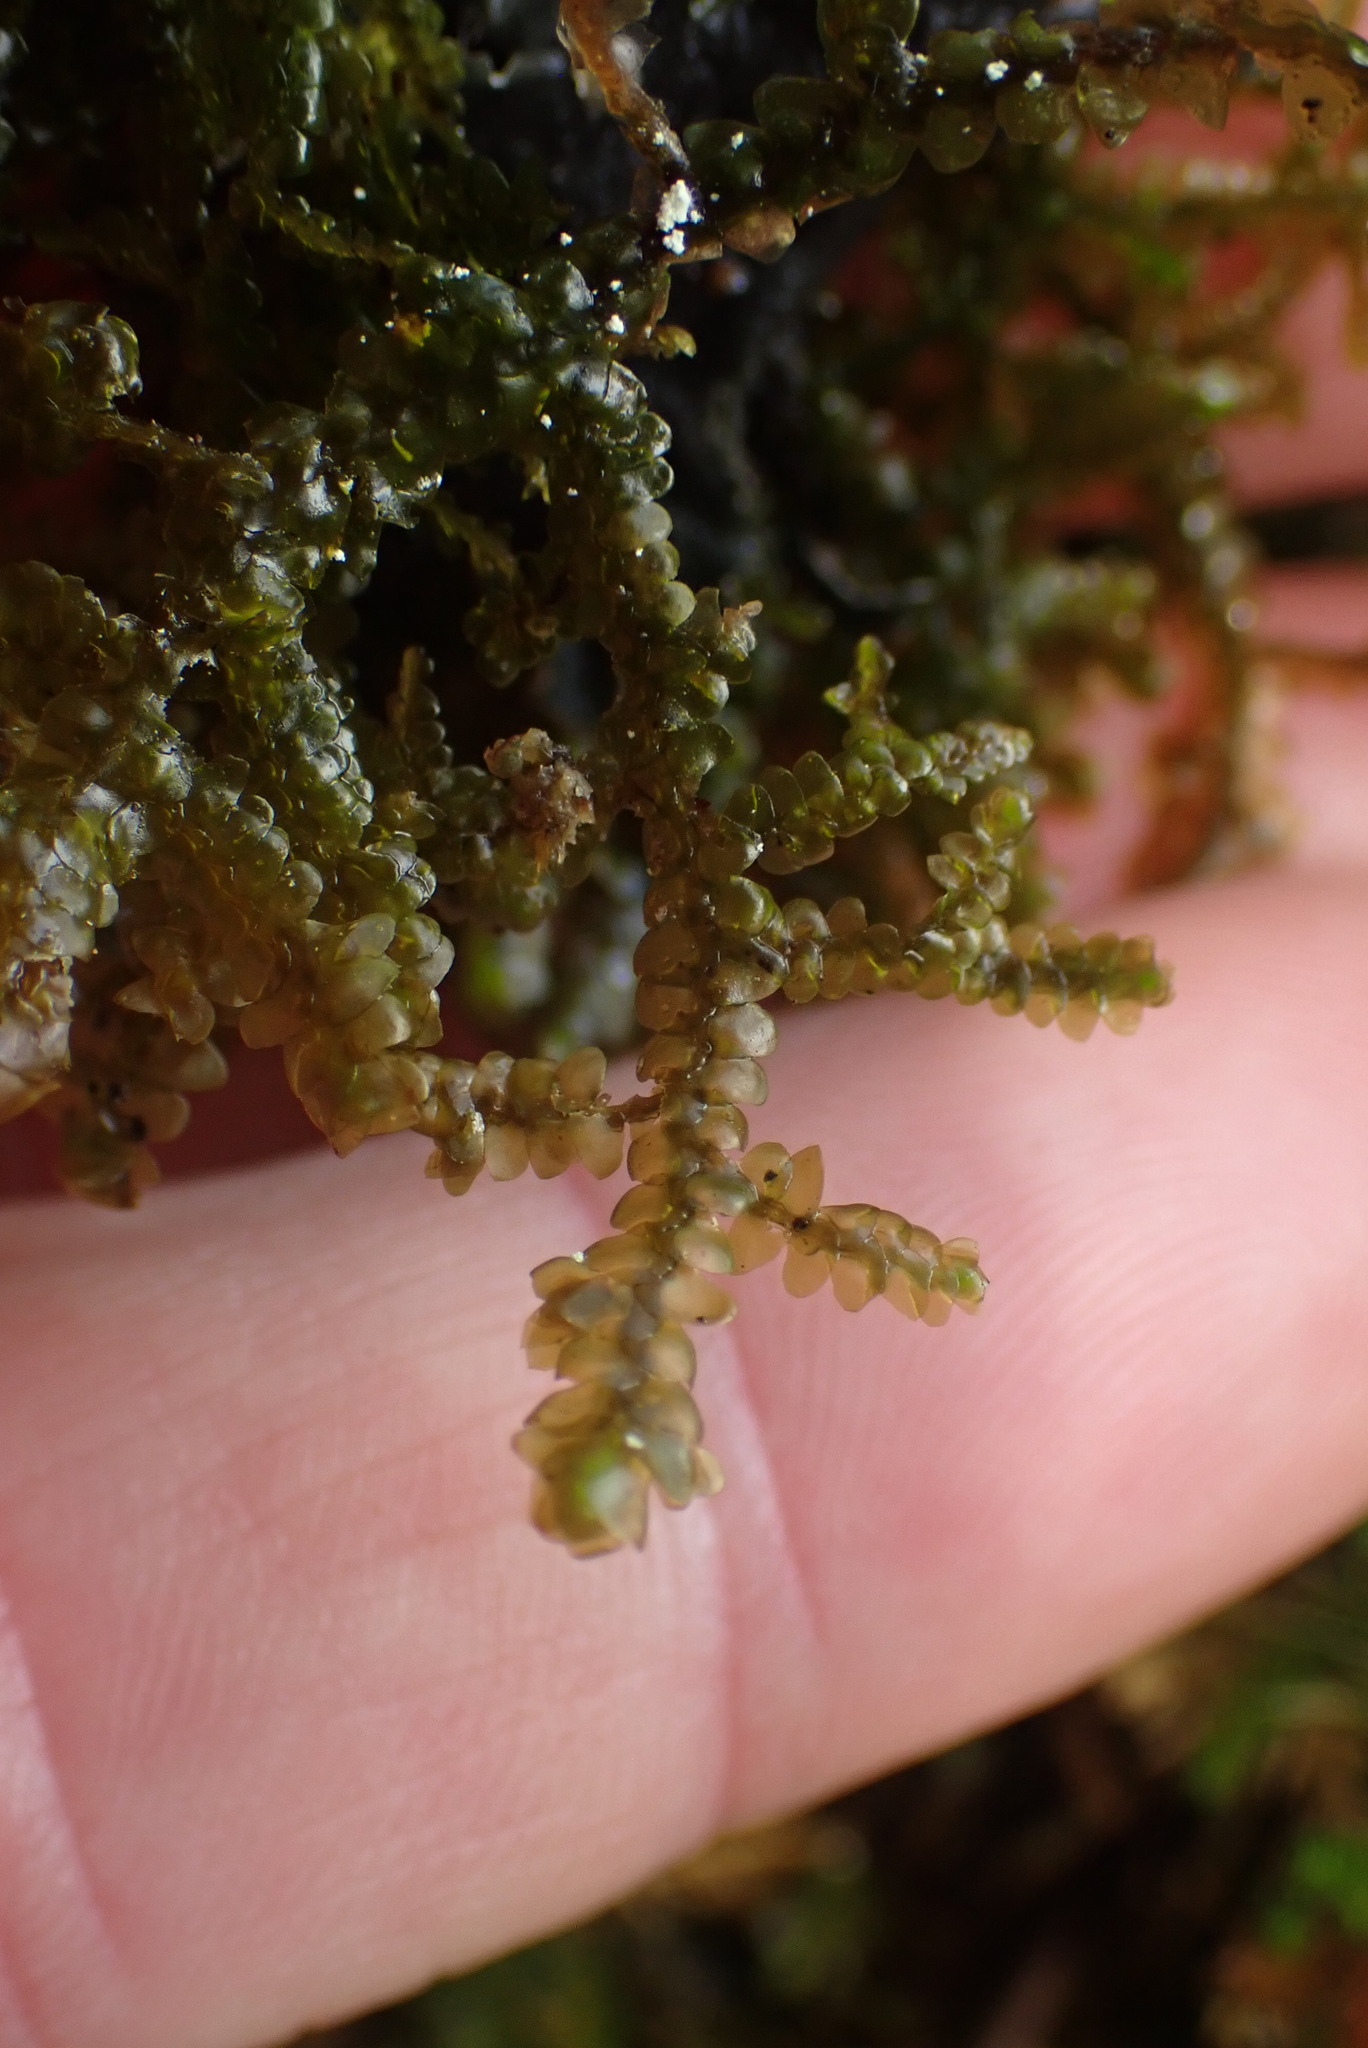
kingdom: Plantae
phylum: Marchantiophyta
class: Jungermanniopsida
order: Porellales
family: Porellaceae
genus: Porella
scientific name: Porella cordaeana
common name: Cliff scalewort
